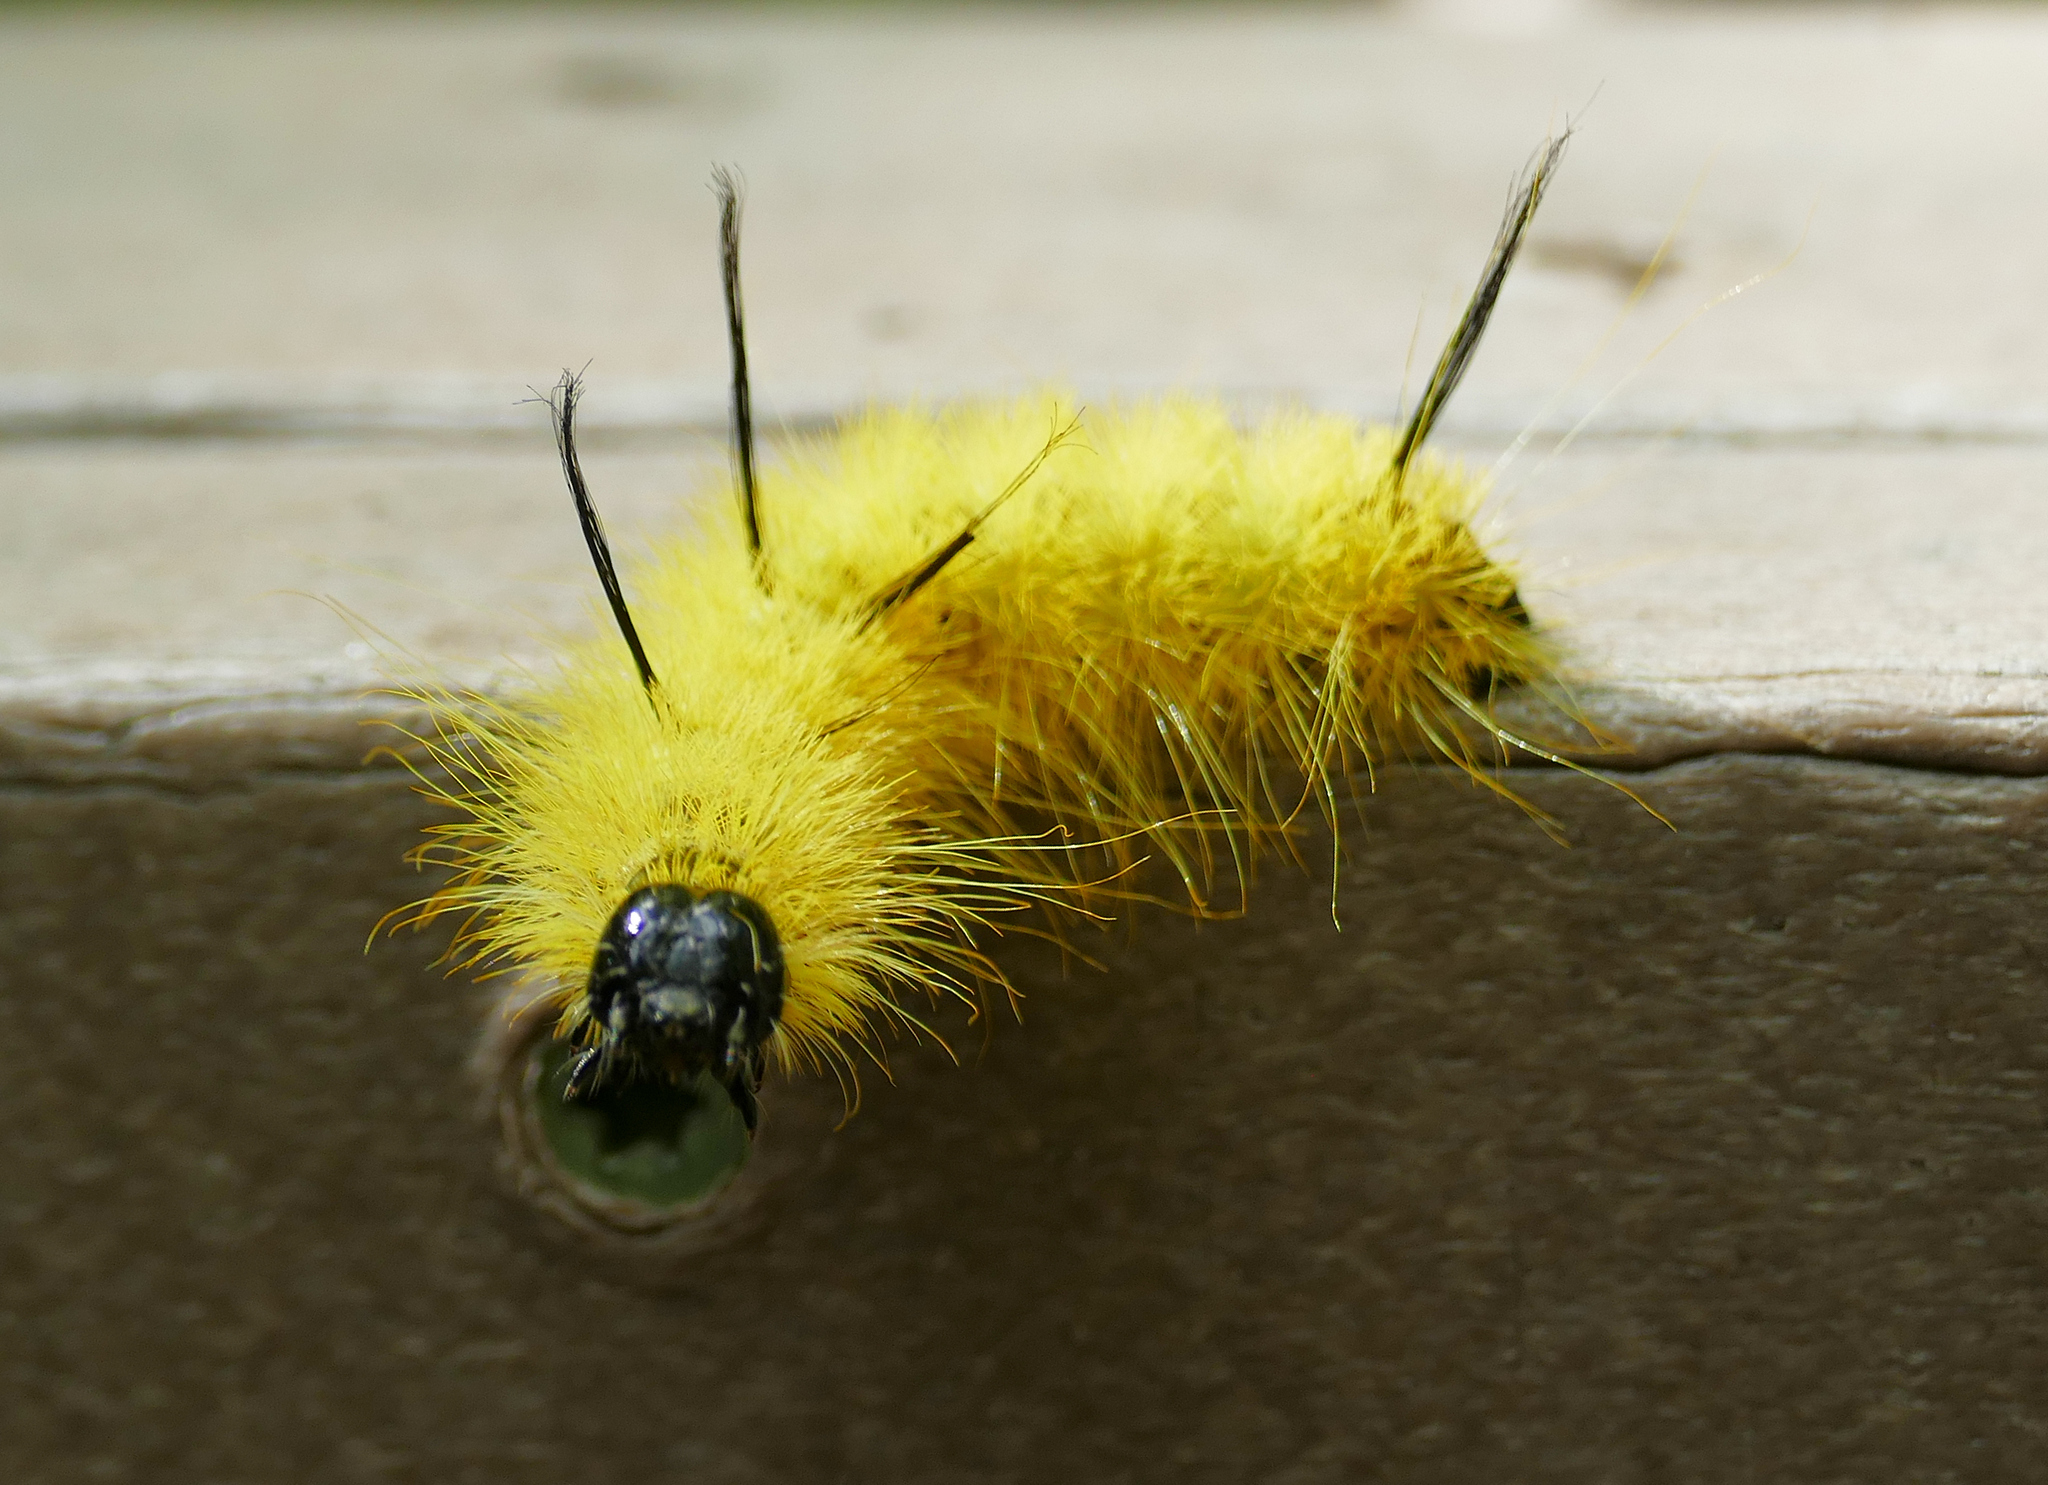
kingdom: Animalia
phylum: Arthropoda
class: Insecta
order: Lepidoptera
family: Noctuidae
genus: Acronicta
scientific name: Acronicta americana
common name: American dagger
